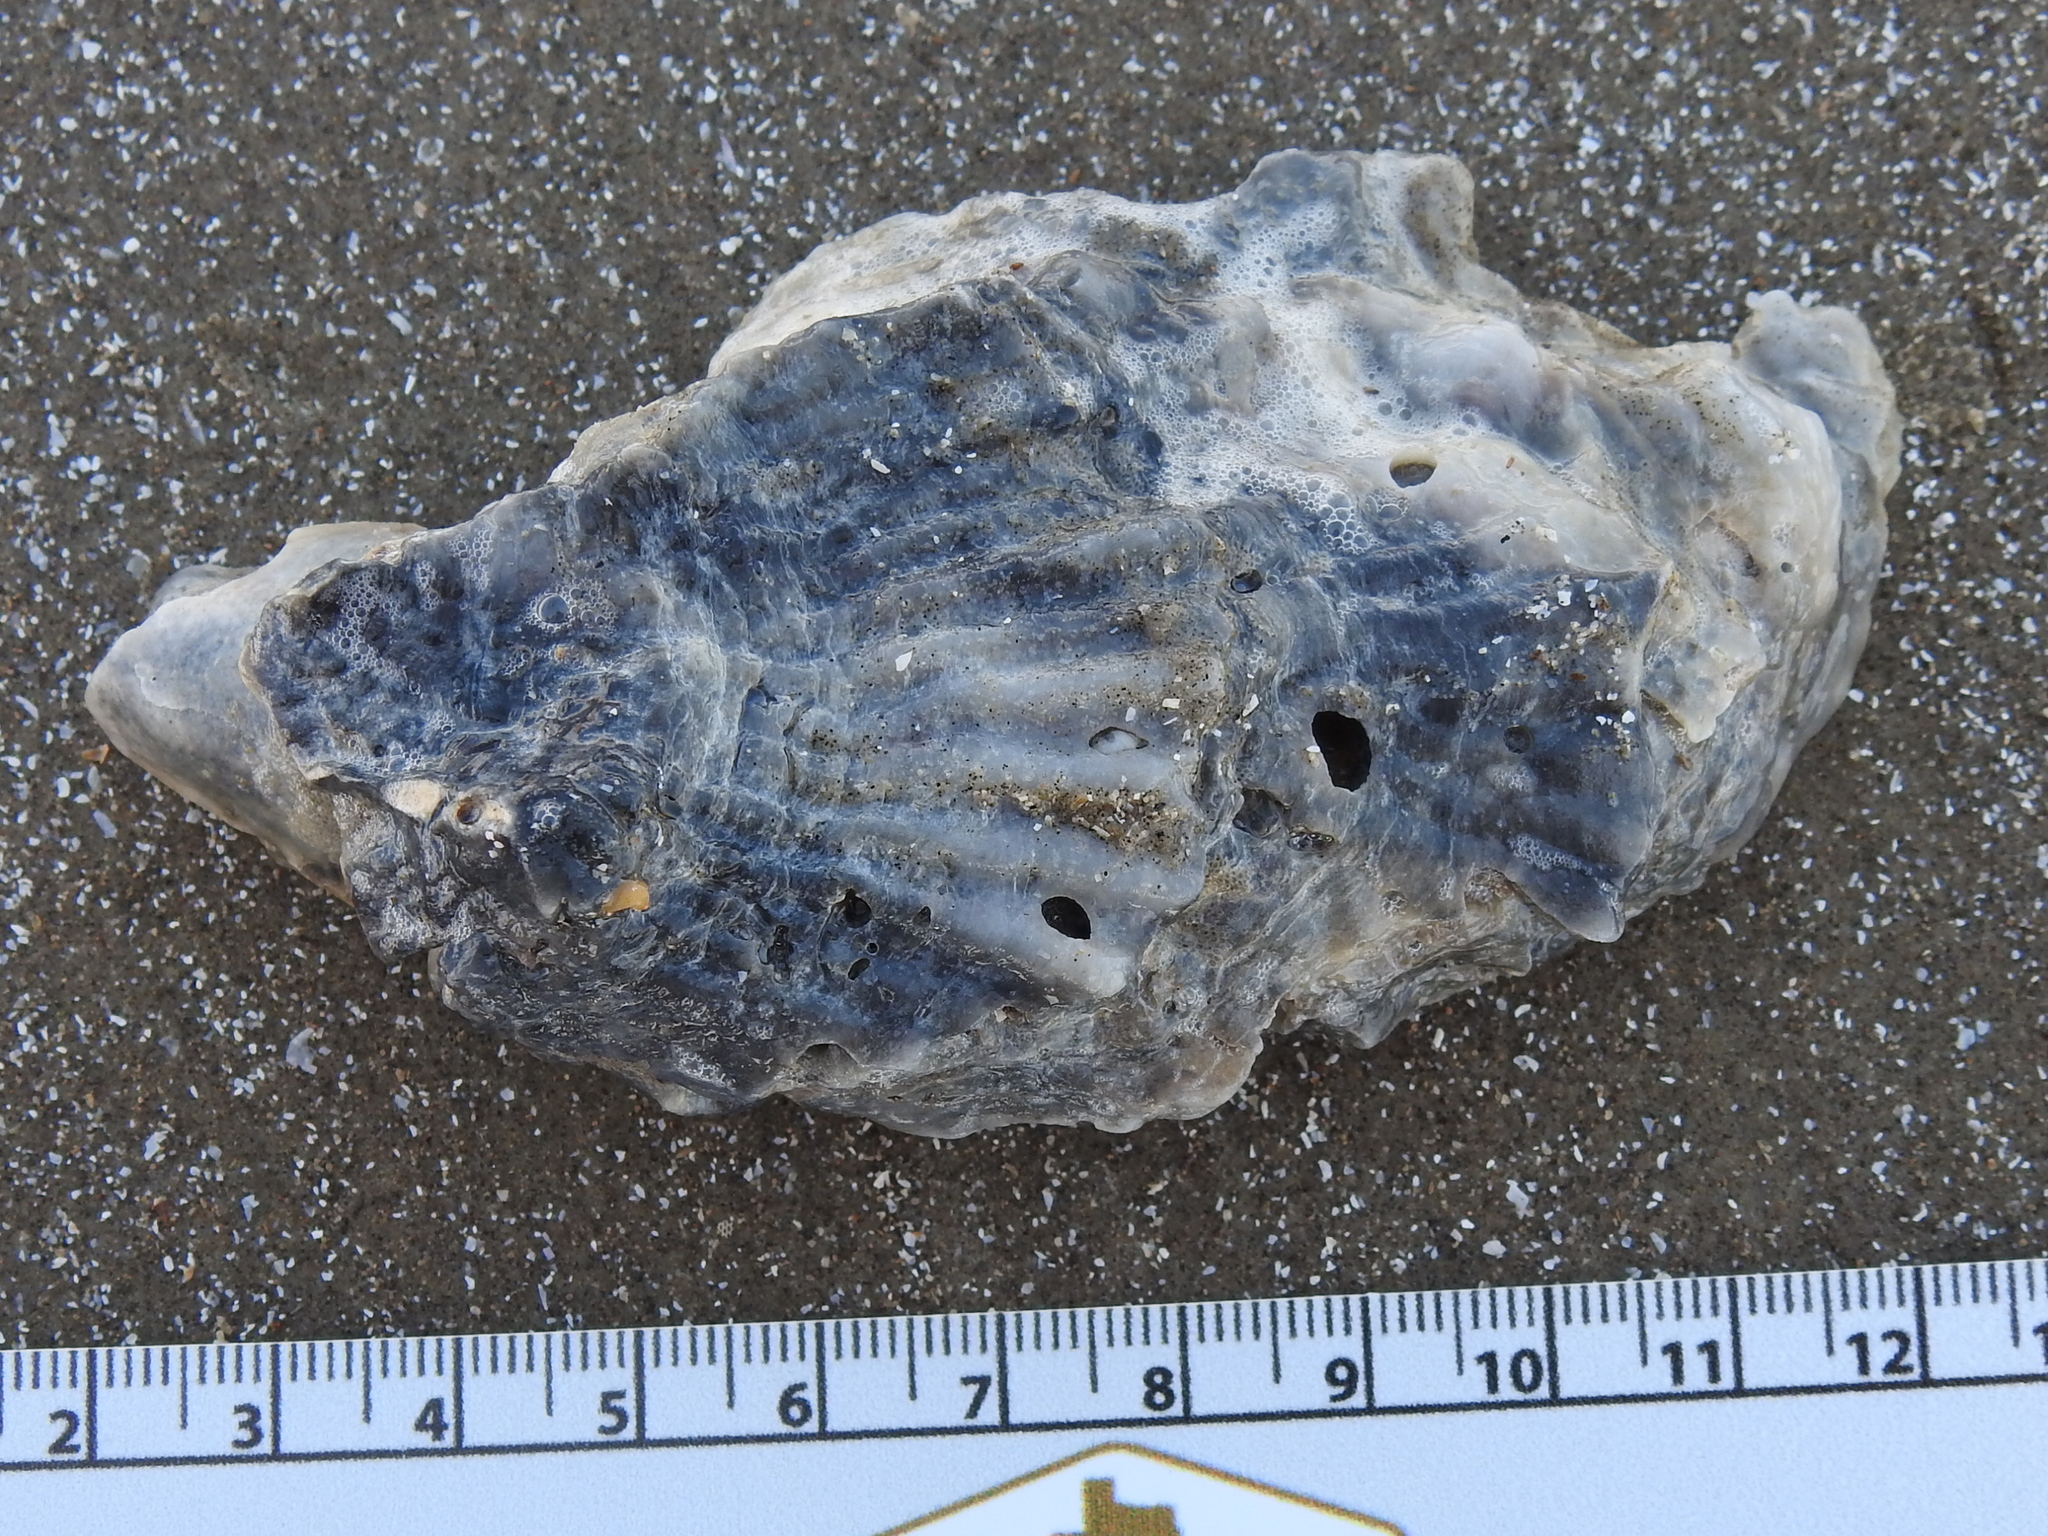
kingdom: Animalia
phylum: Mollusca
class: Bivalvia
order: Ostreida
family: Ostreidae
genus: Crassostrea
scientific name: Crassostrea virginica
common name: American oyster
